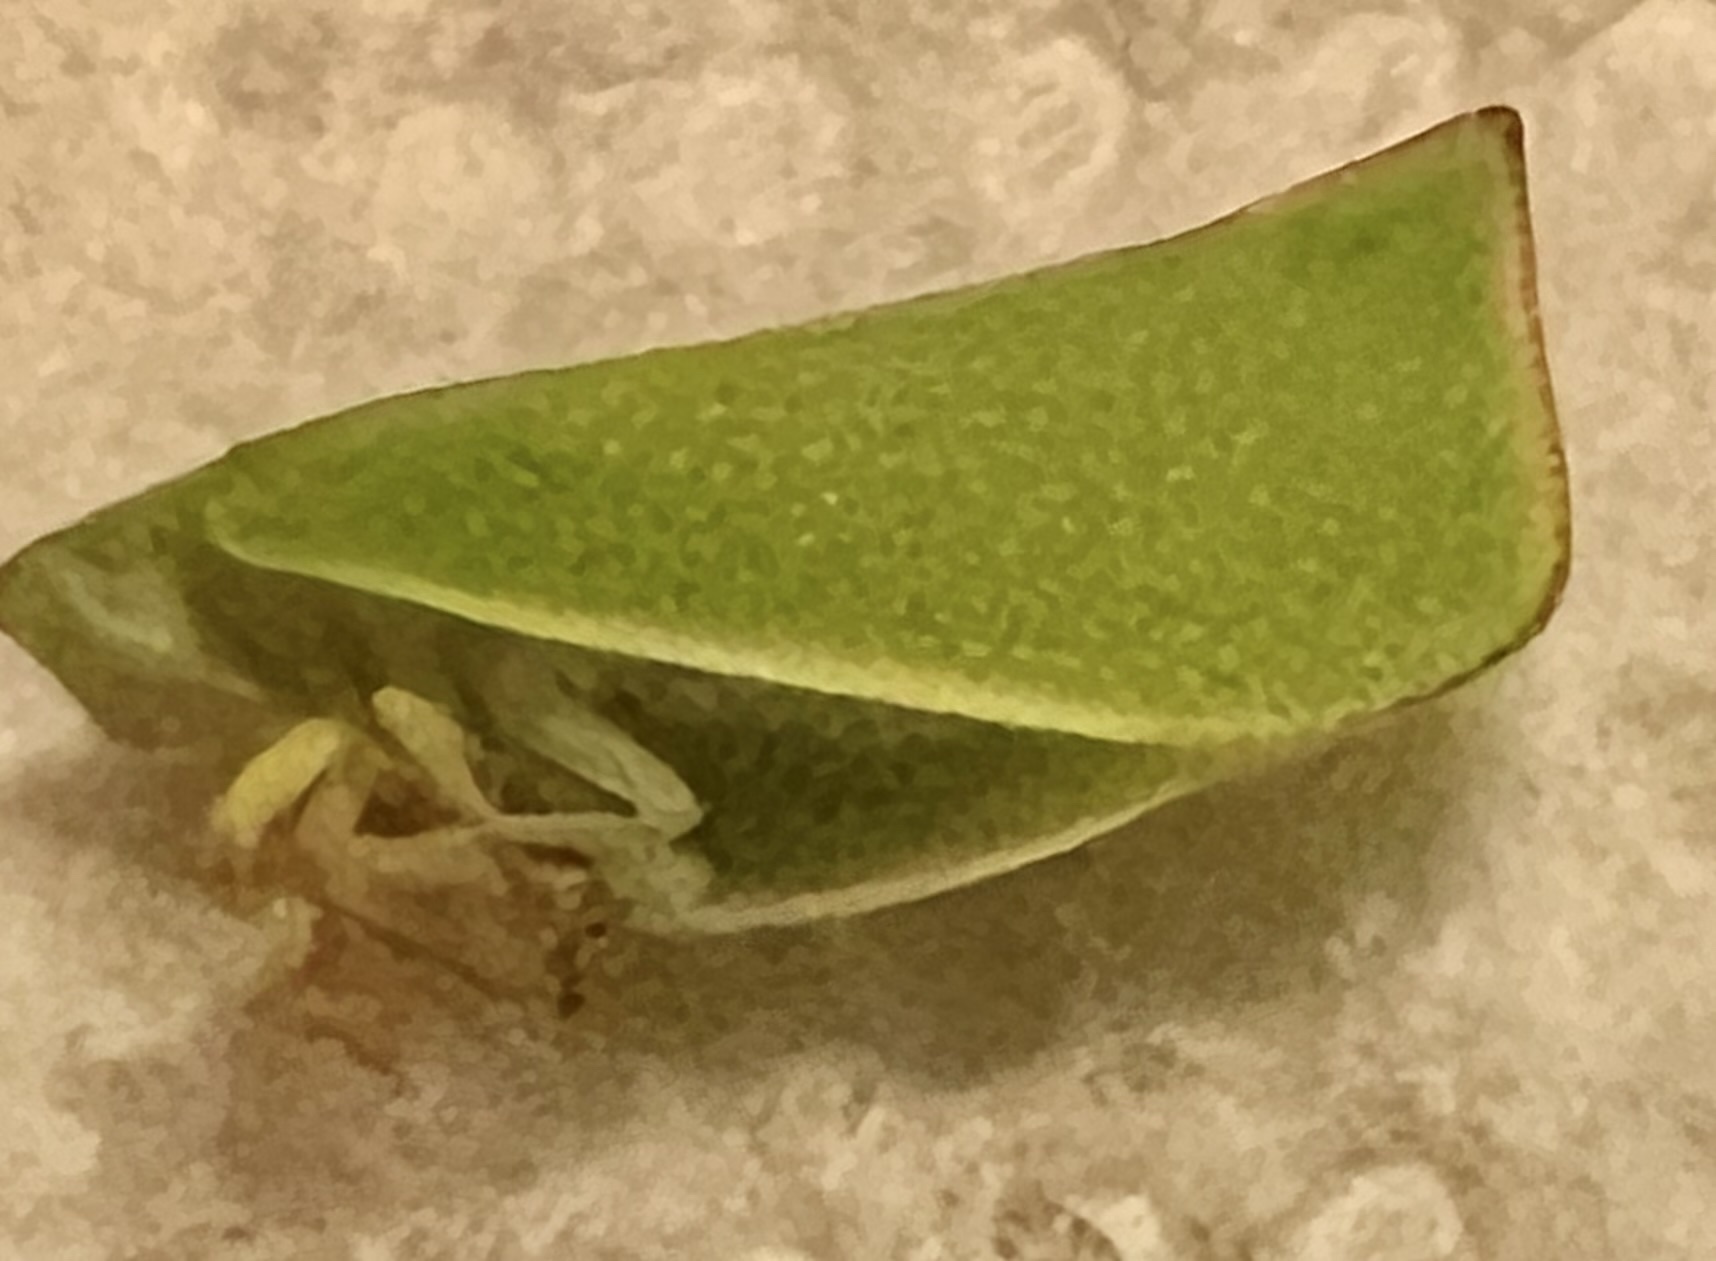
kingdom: Animalia
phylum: Arthropoda
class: Insecta
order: Hemiptera
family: Flatidae
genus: Siphanta
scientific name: Siphanta acuta
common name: Torpedo bug
